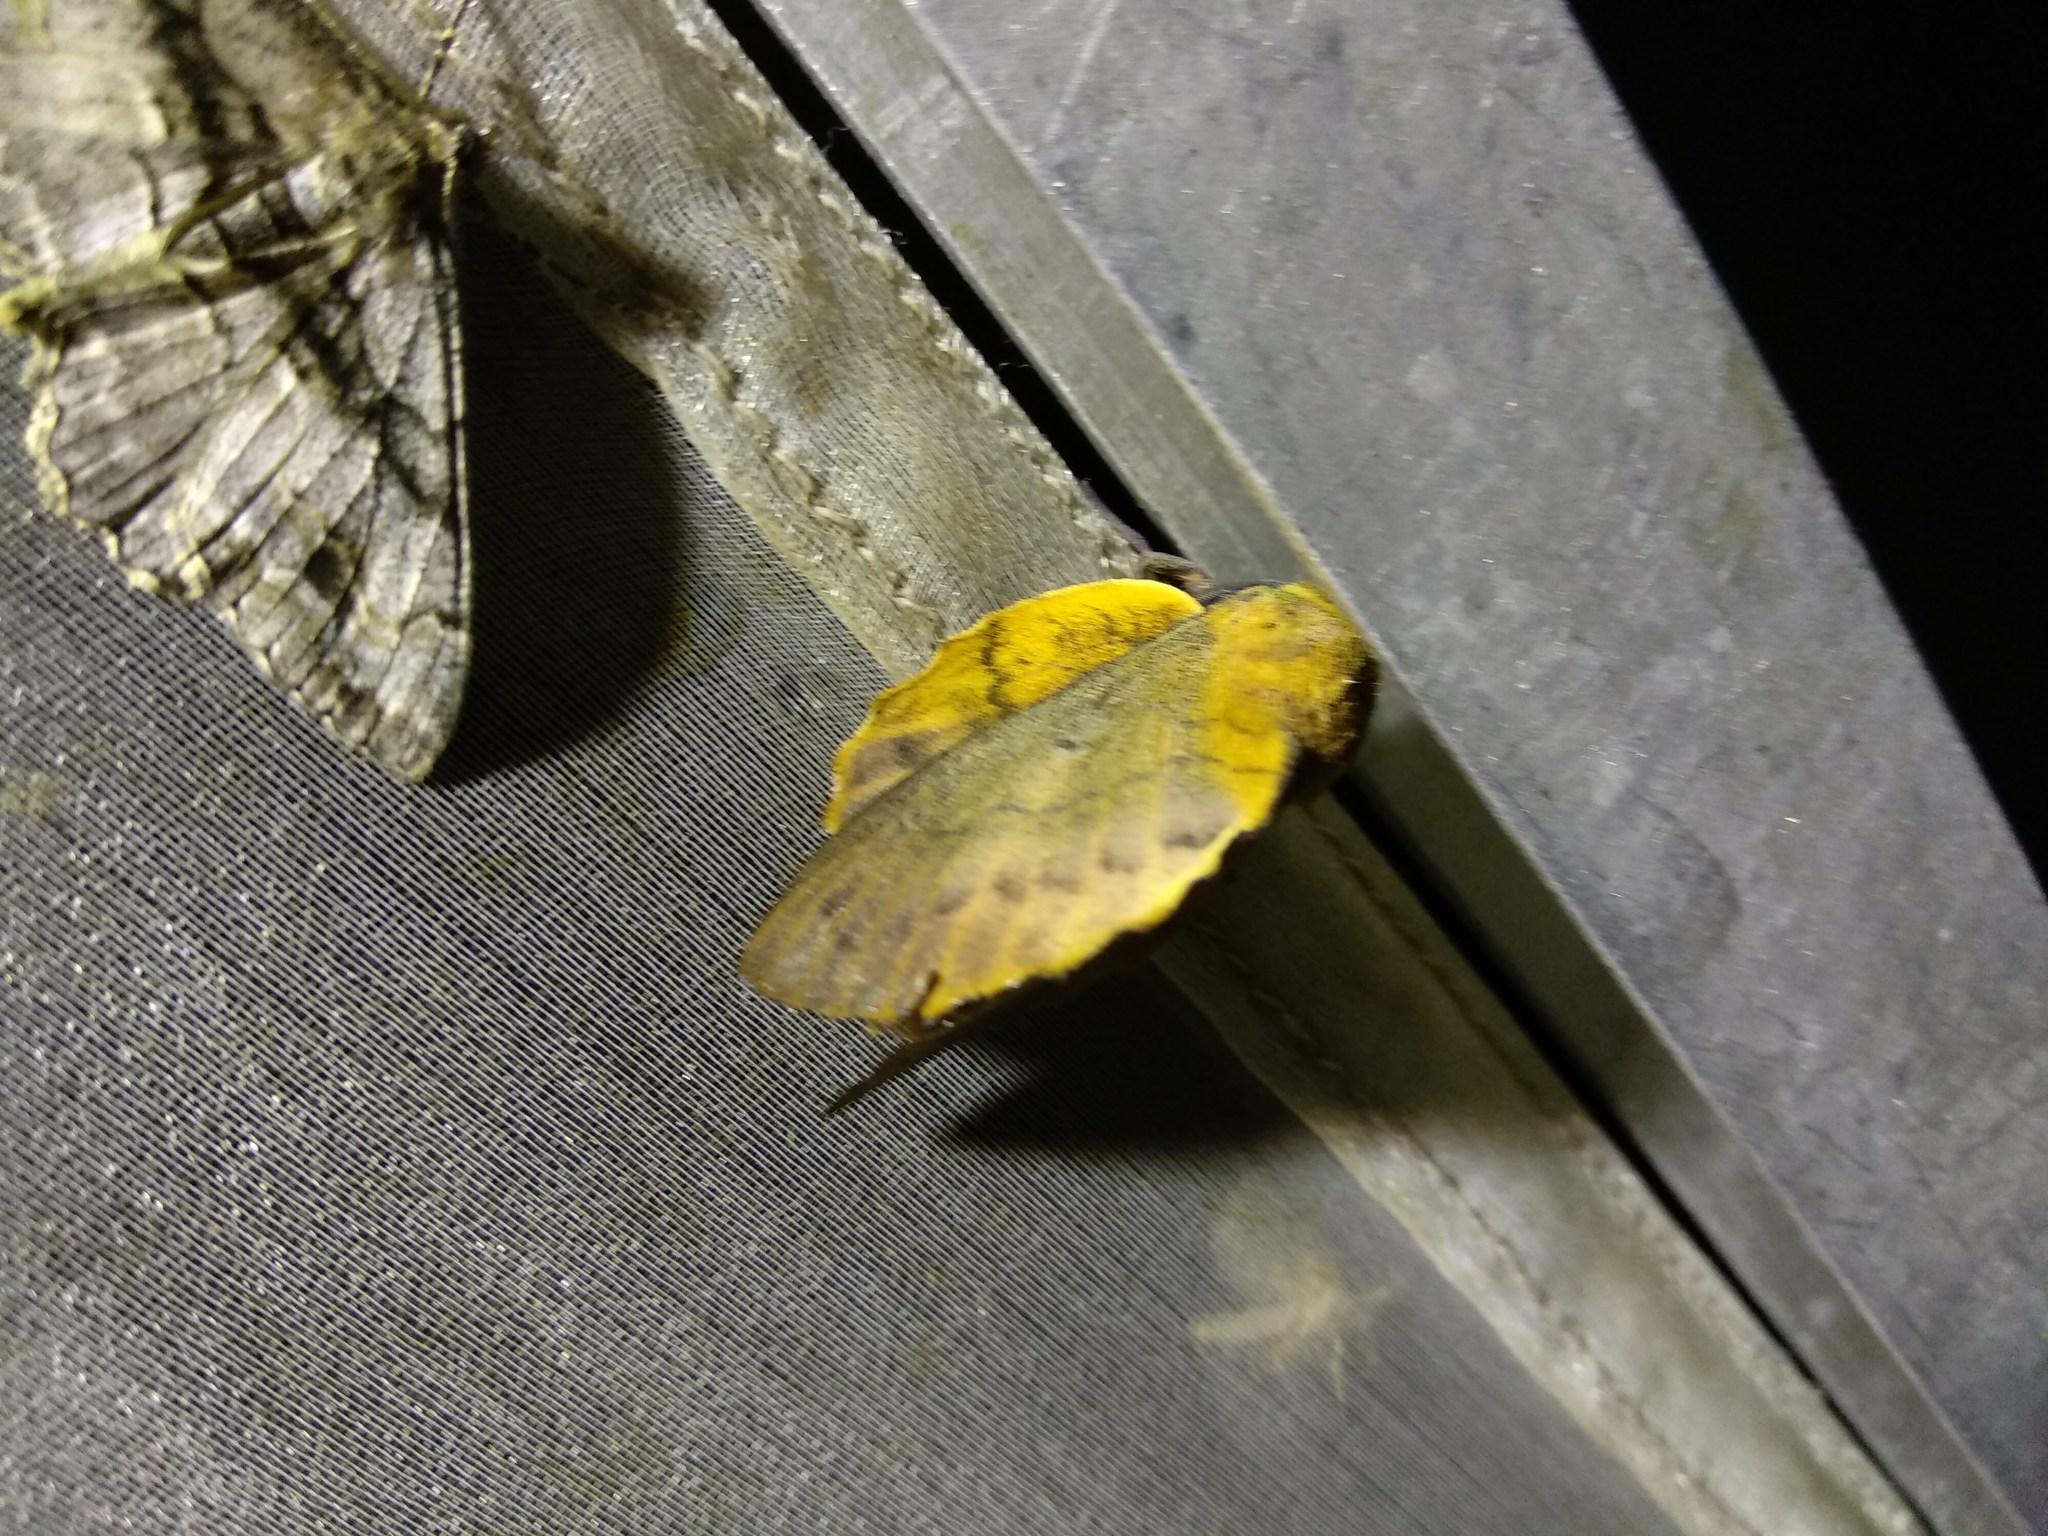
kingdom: Animalia
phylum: Arthropoda
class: Insecta
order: Lepidoptera
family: Lasiocampidae
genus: Gastropacha
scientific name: Gastropacha quercifolia
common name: Lappet
